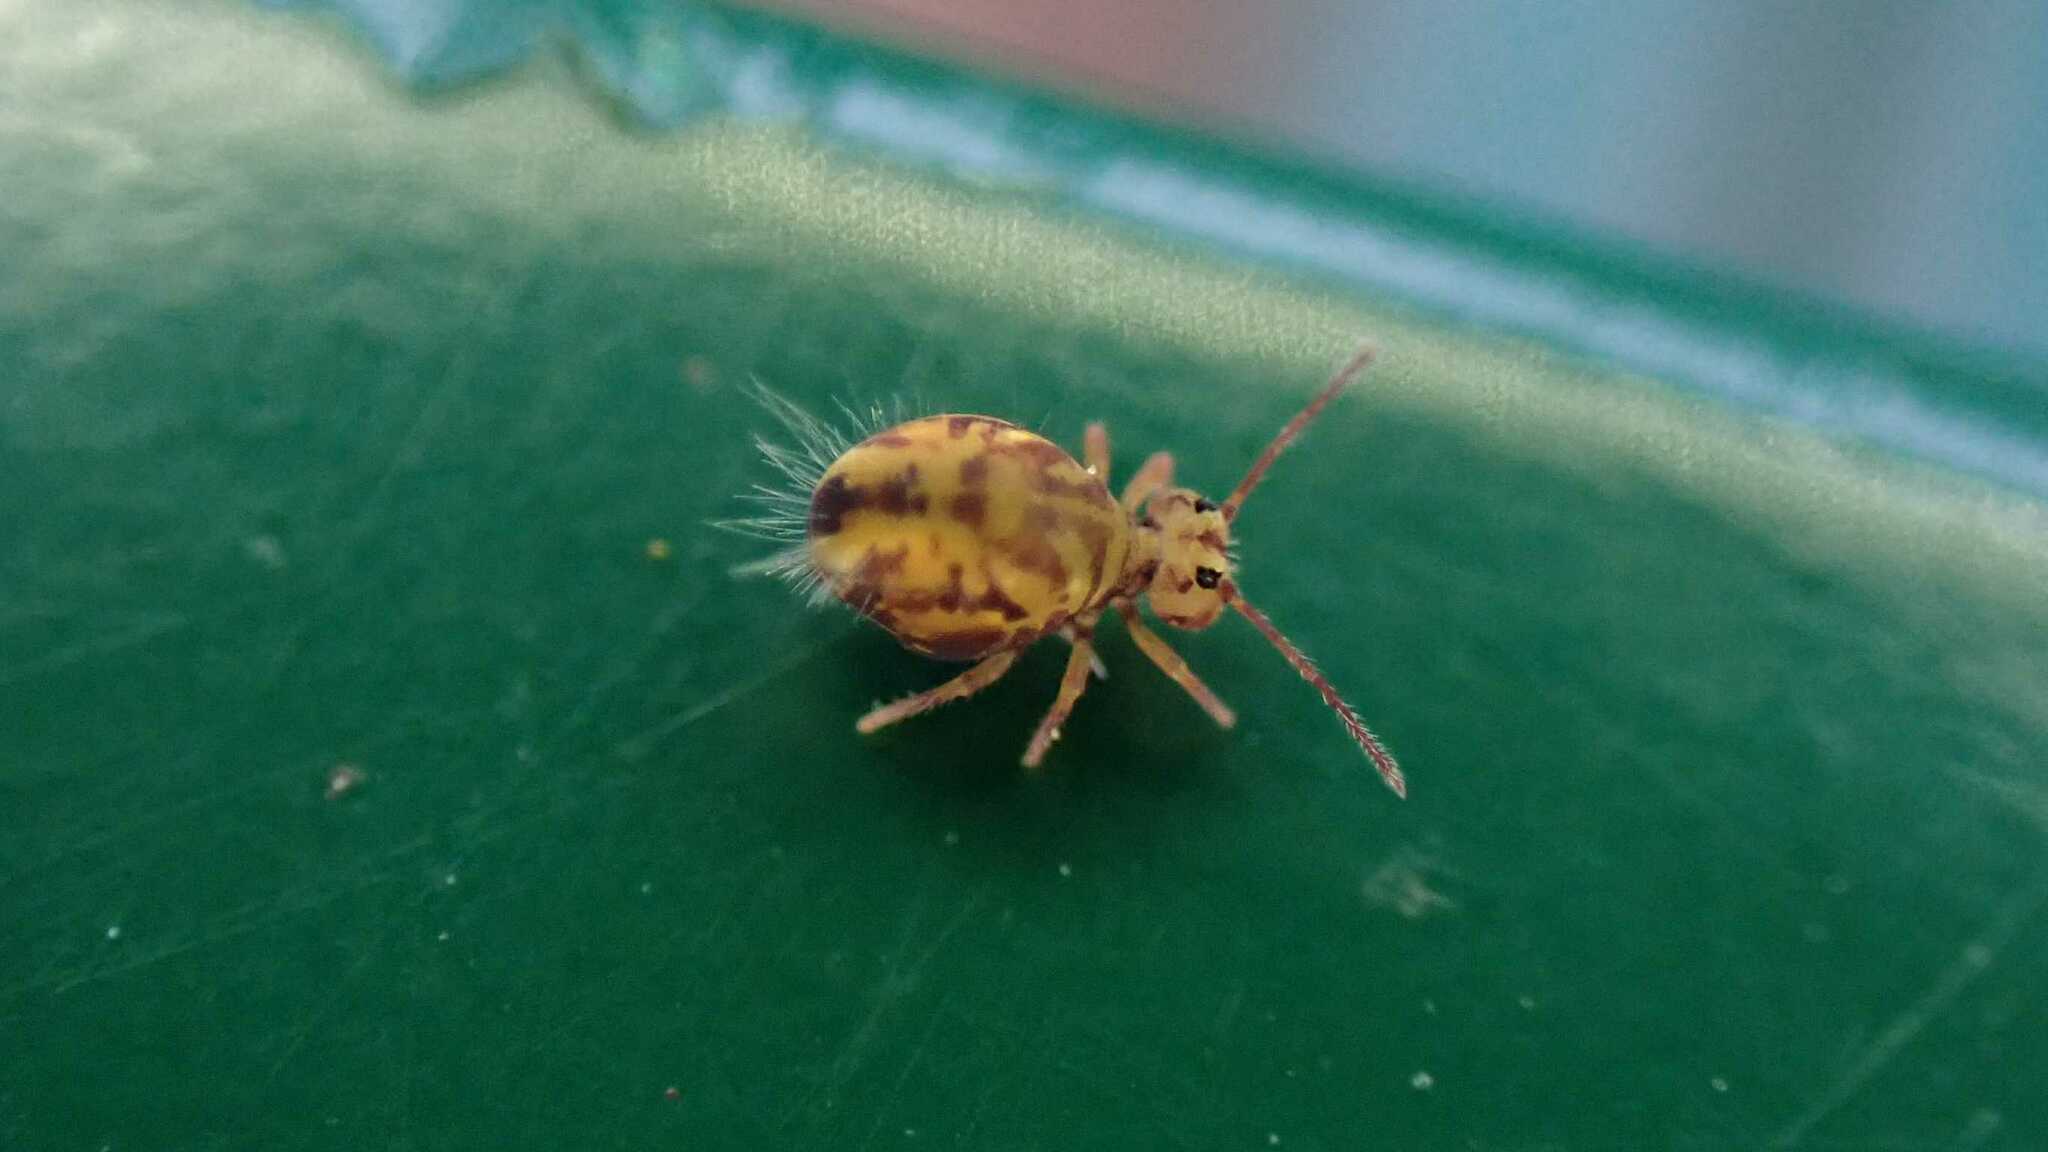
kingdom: Animalia
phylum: Arthropoda
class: Collembola
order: Symphypleona
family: Dicyrtomidae
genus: Dicyrtomina
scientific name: Dicyrtomina ornata
